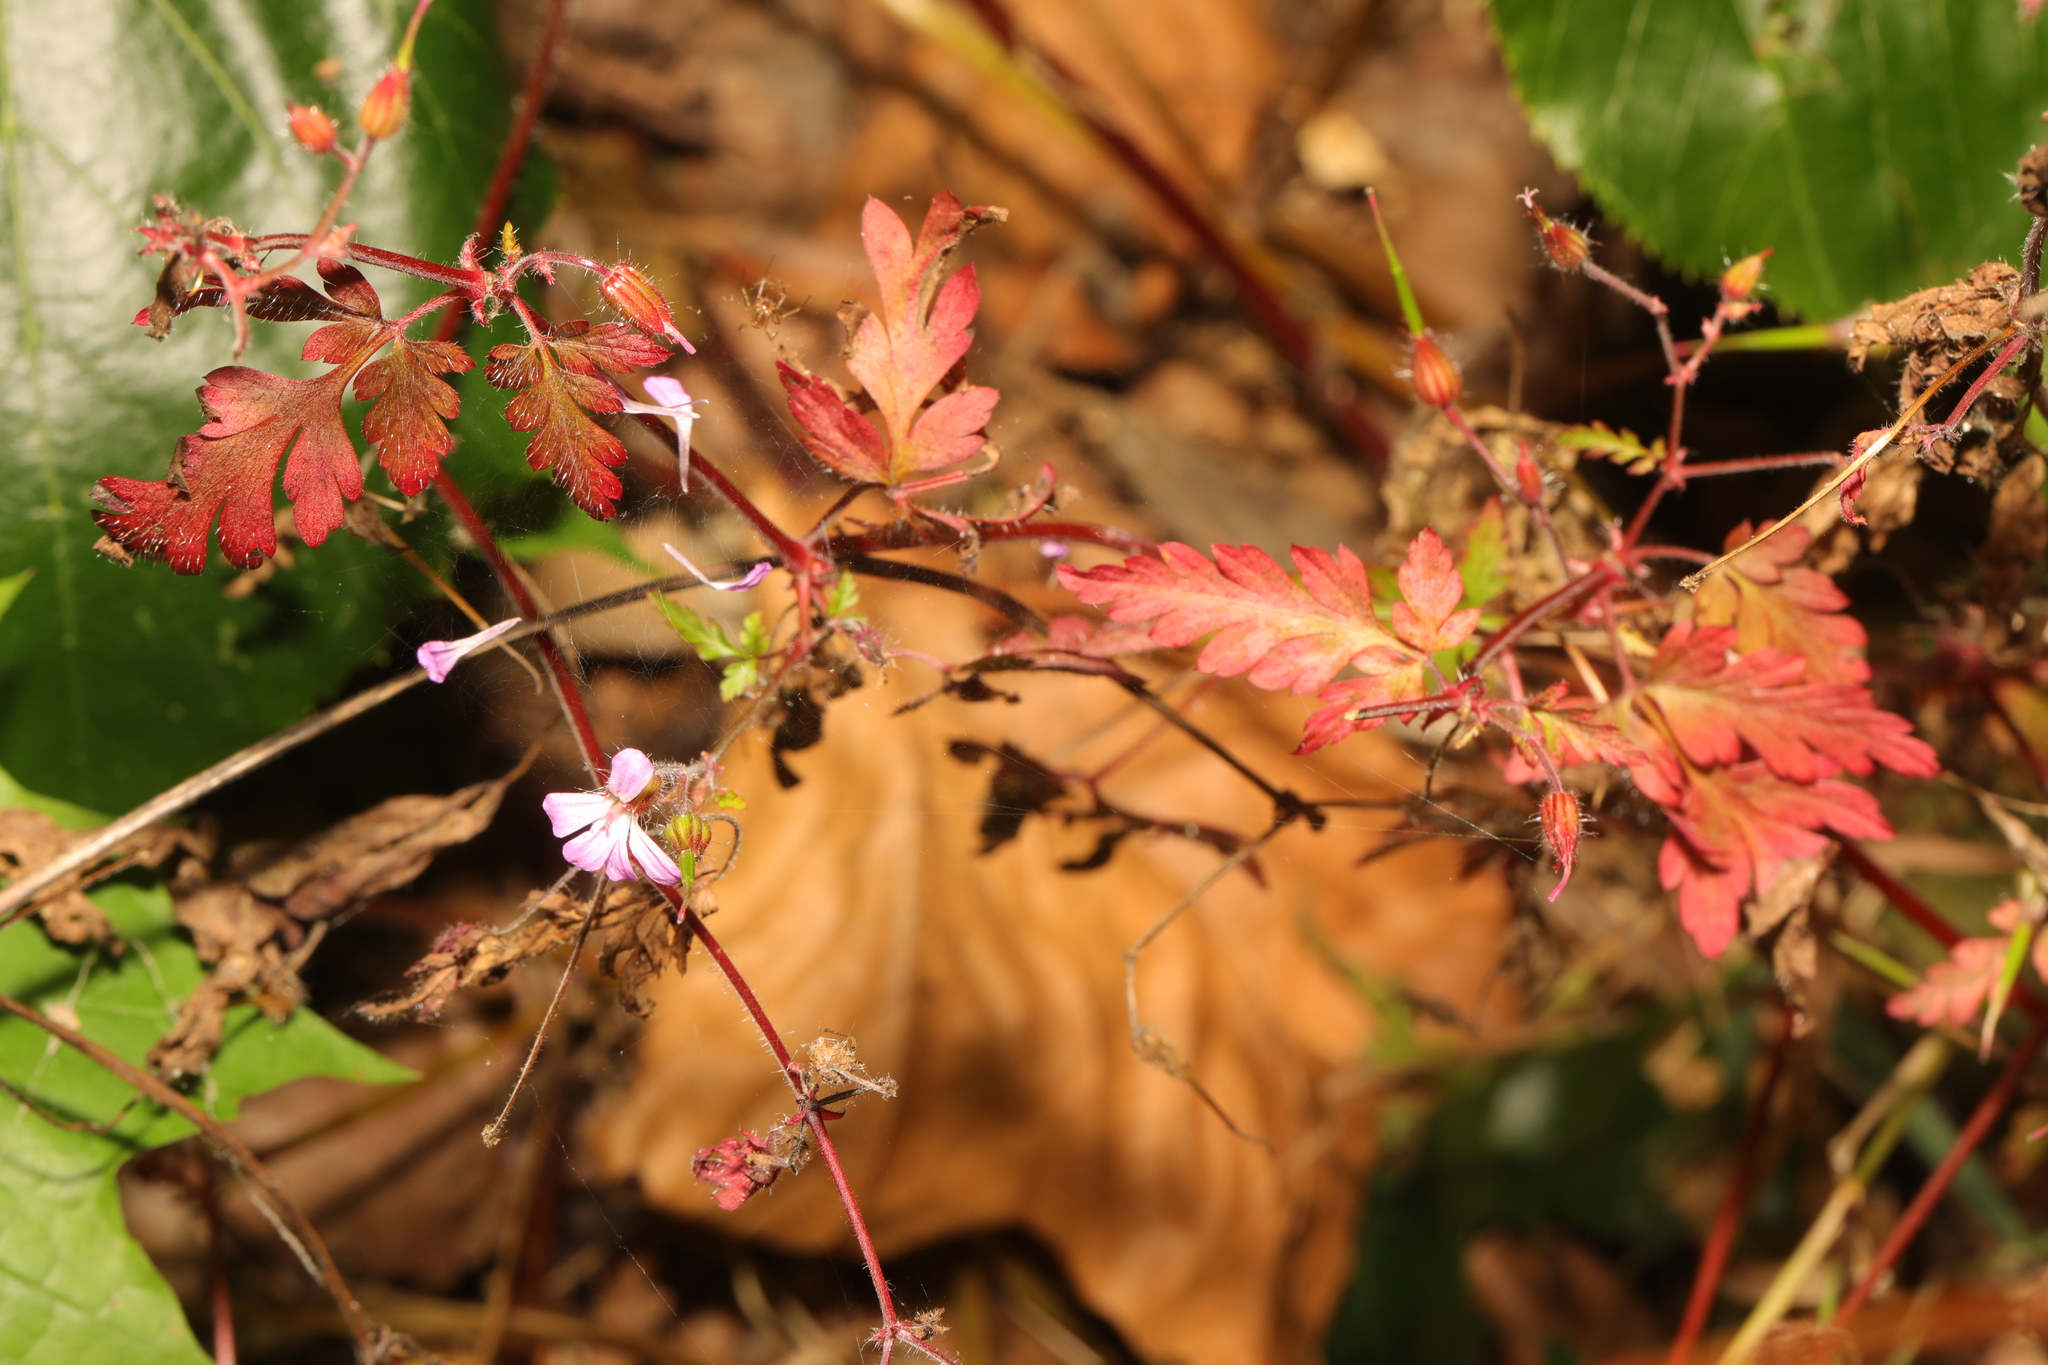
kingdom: Plantae
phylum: Tracheophyta
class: Magnoliopsida
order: Geraniales
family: Geraniaceae
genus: Geranium
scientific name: Geranium robertianum
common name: Herb-robert
